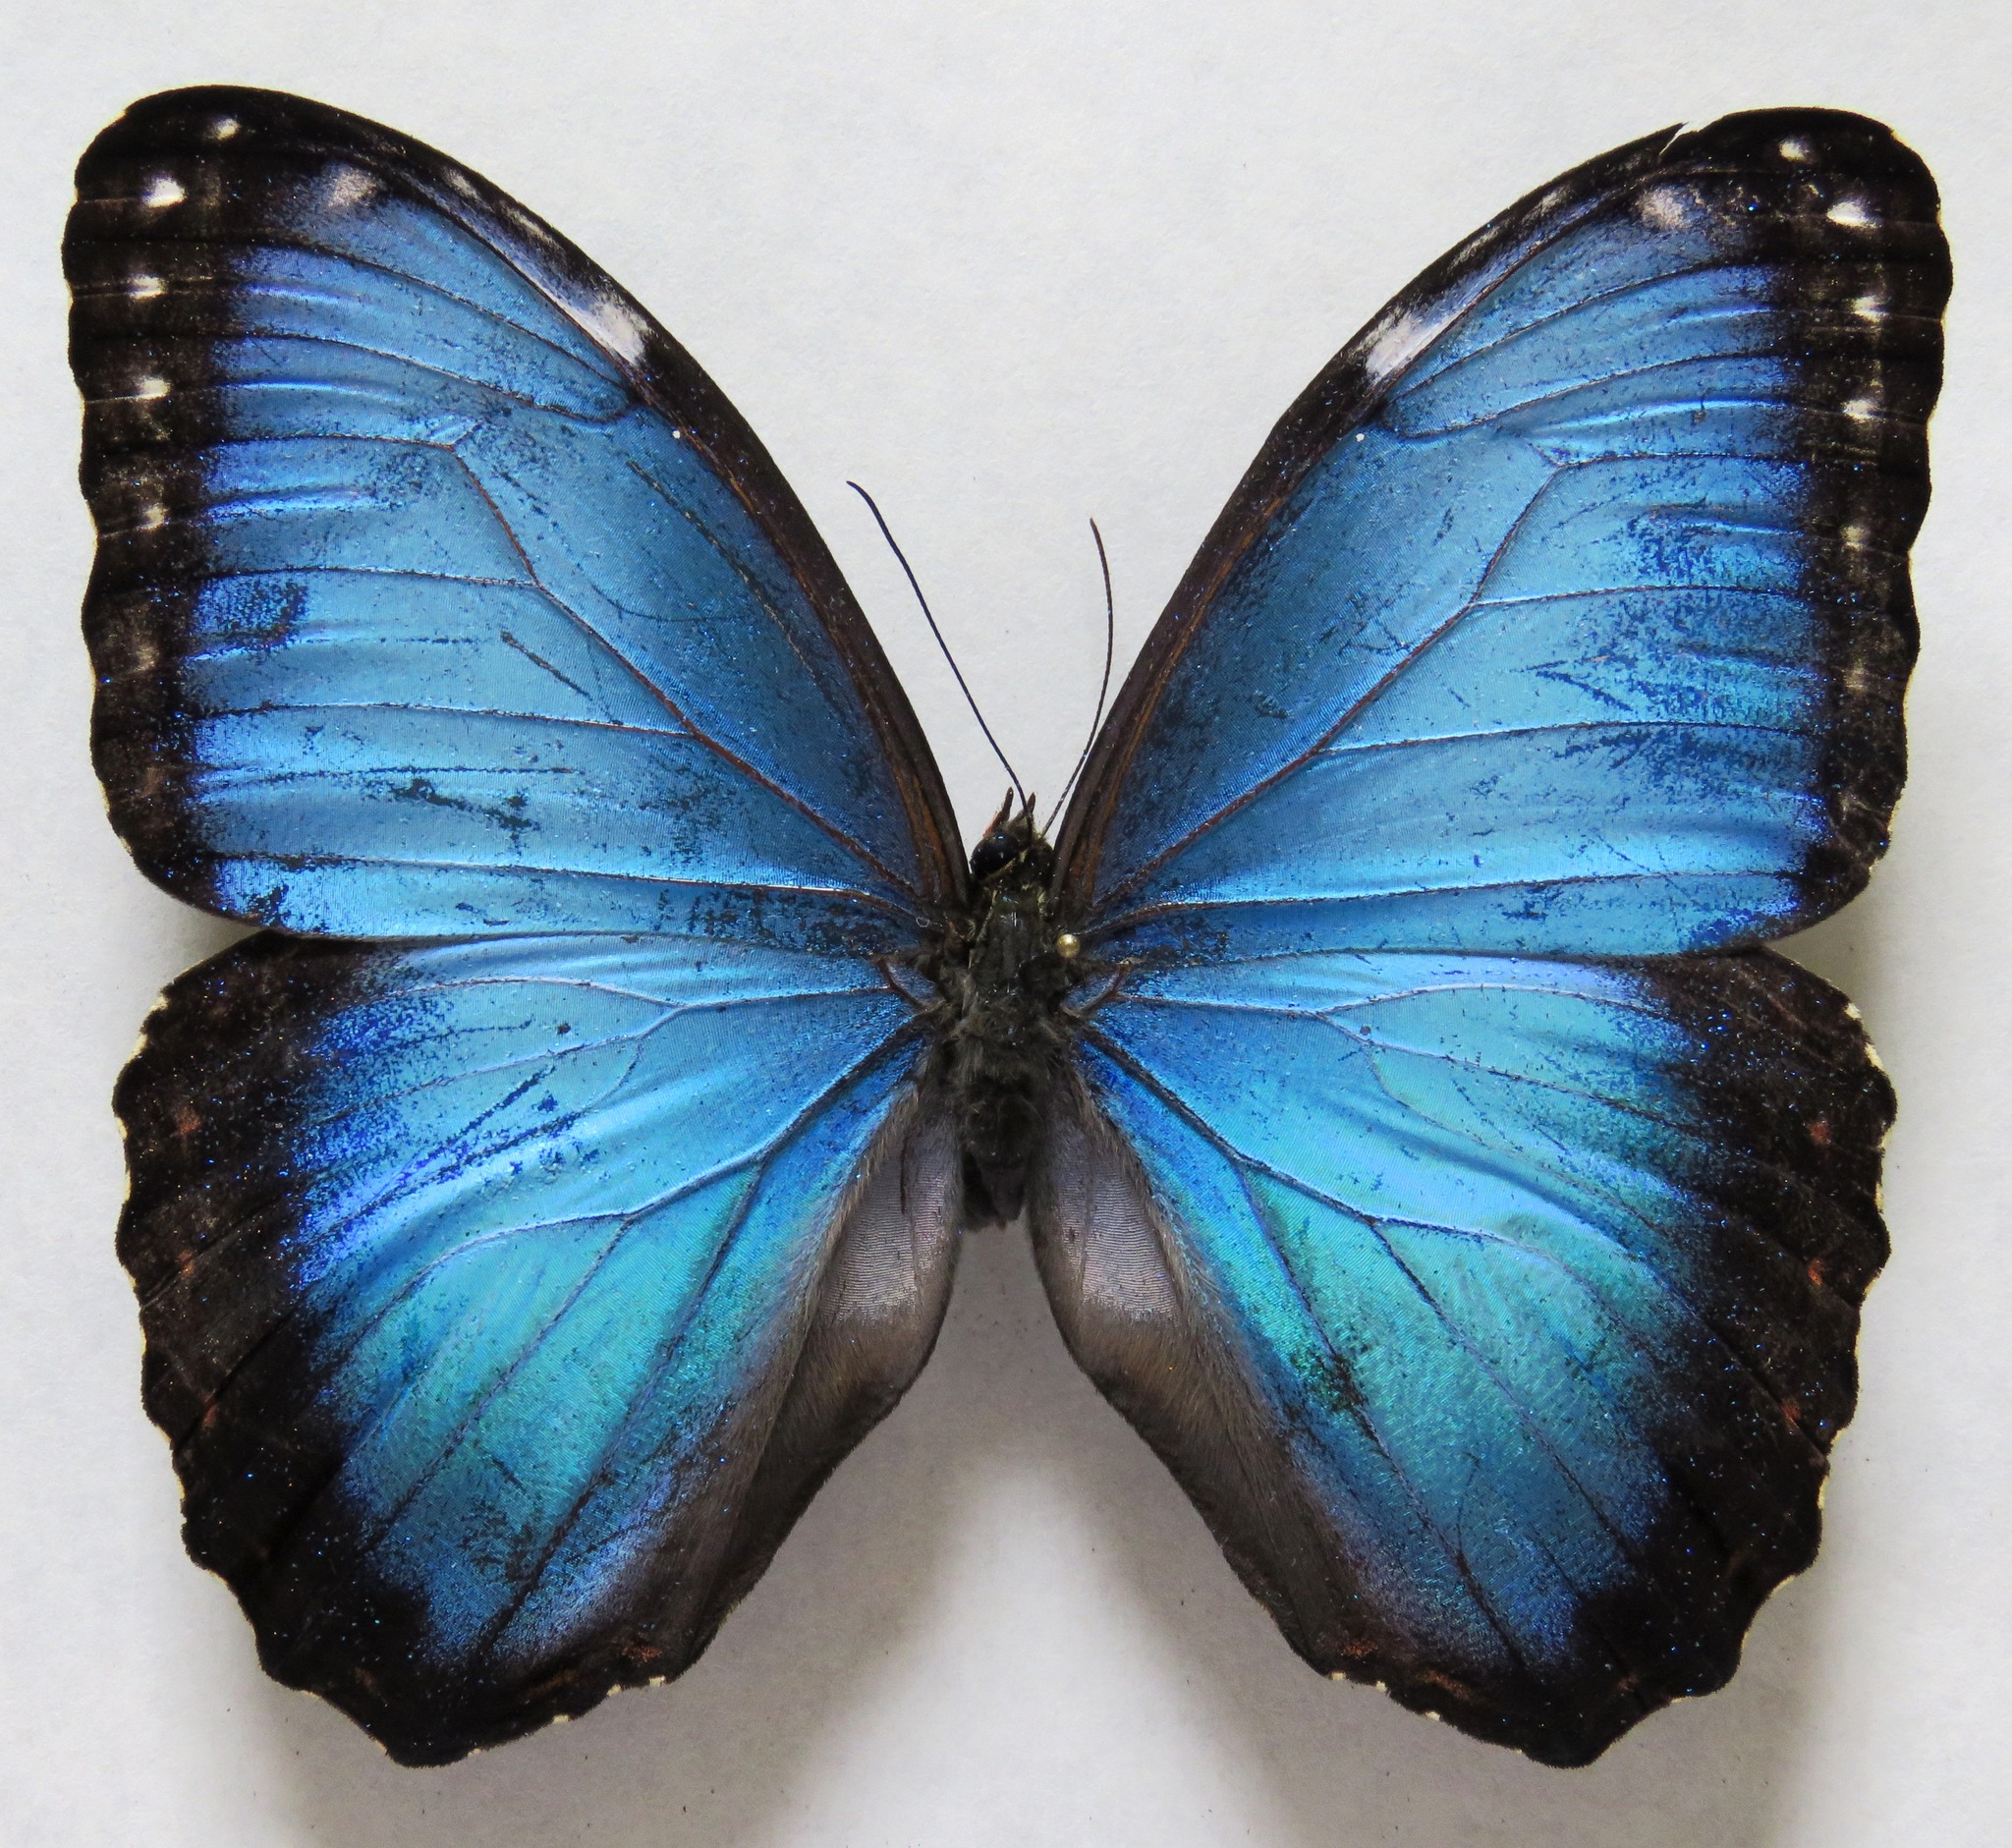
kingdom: Animalia
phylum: Arthropoda
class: Insecta
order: Lepidoptera
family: Nymphalidae
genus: Morpho
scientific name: Morpho helenor
